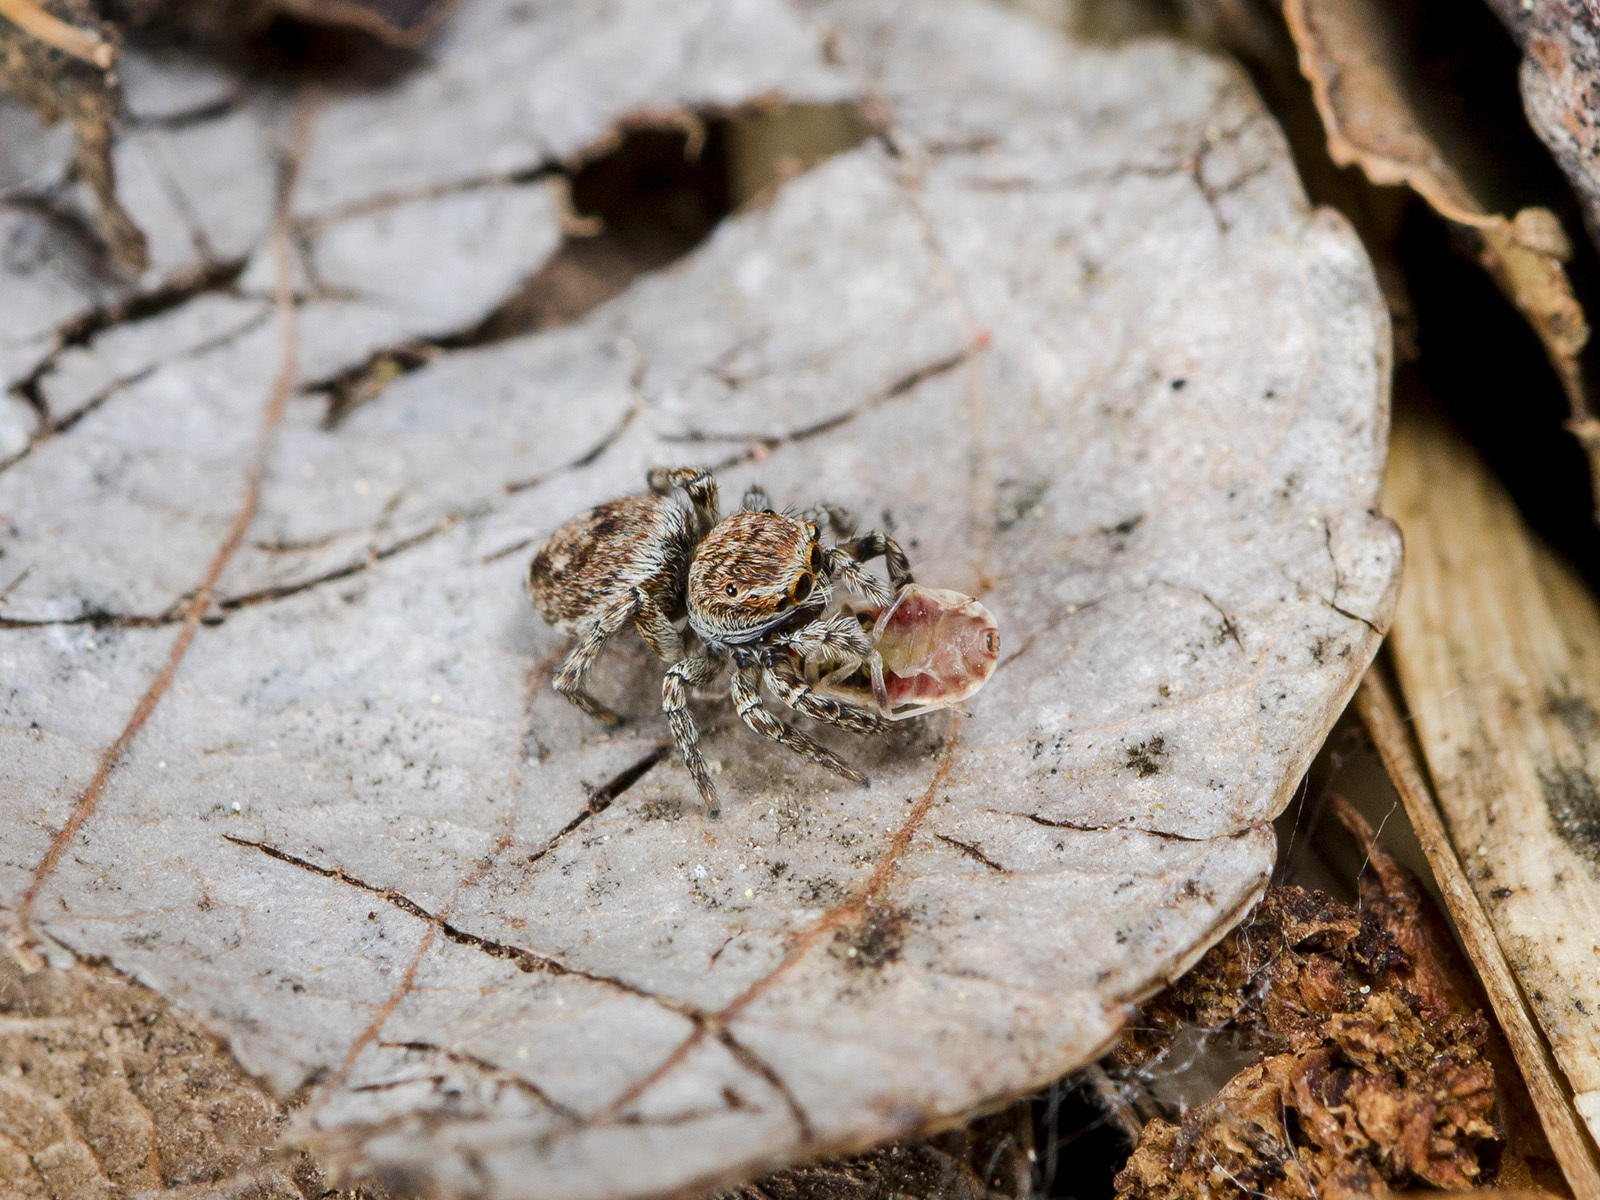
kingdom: Animalia
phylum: Arthropoda
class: Arachnida
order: Araneae
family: Salticidae
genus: Attulus
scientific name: Attulus mirandus
